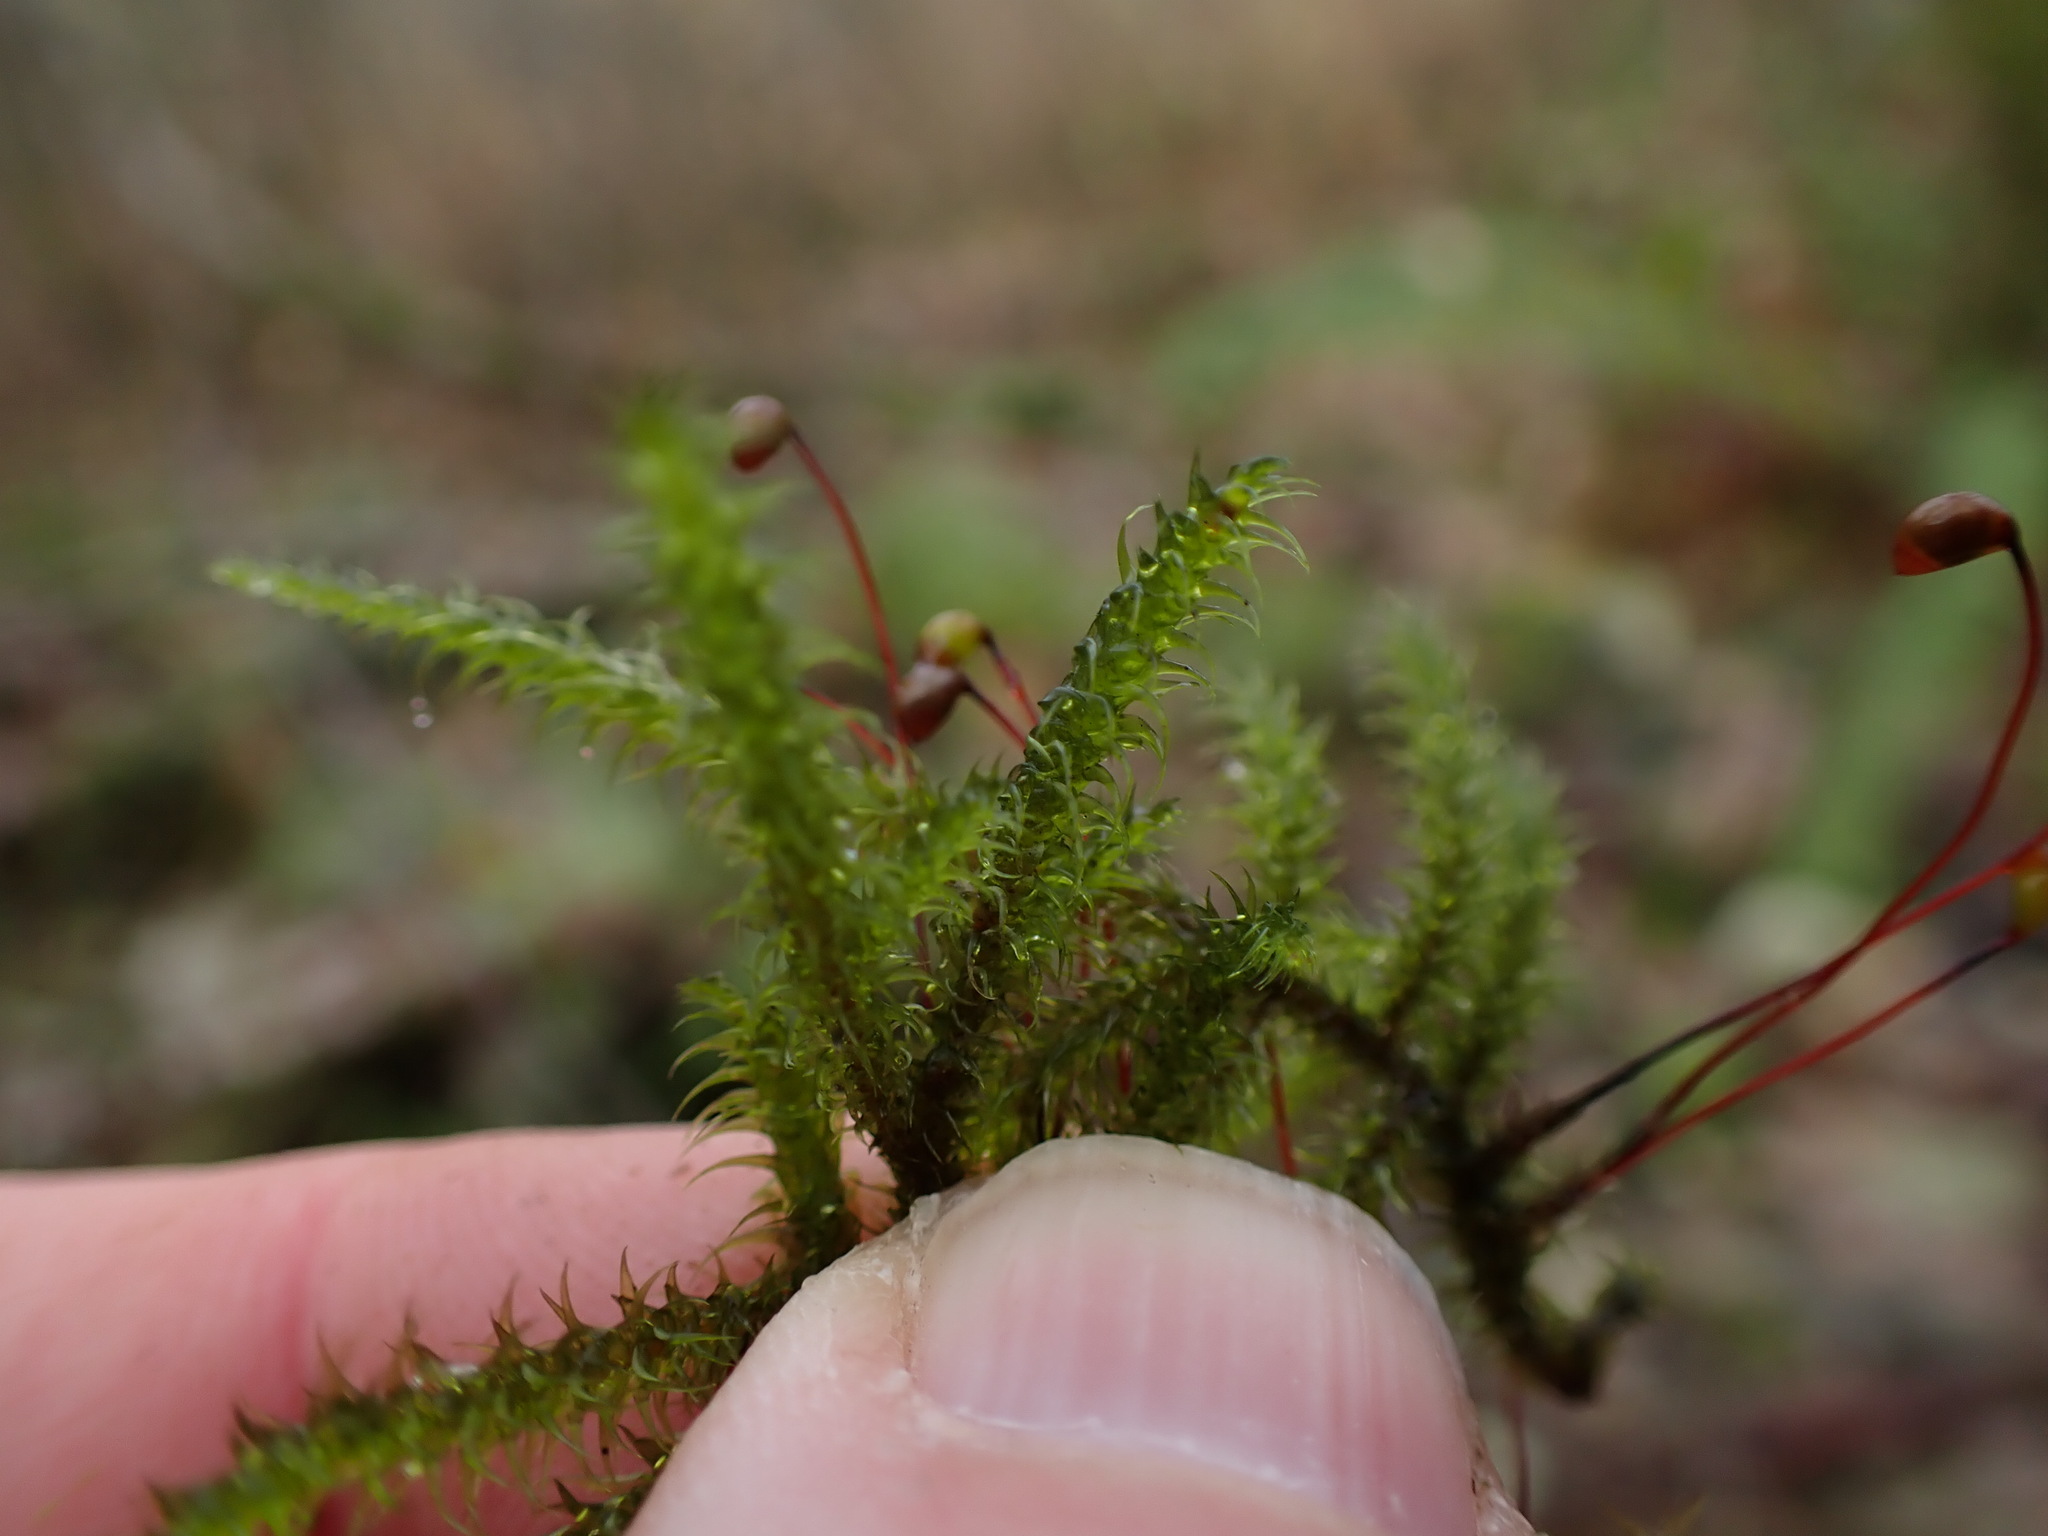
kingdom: Plantae
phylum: Bryophyta
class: Bryopsida
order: Hypnales
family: Hylocomiaceae
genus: Rhytidiadelphus
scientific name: Rhytidiadelphus loreus
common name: Lanky moss
